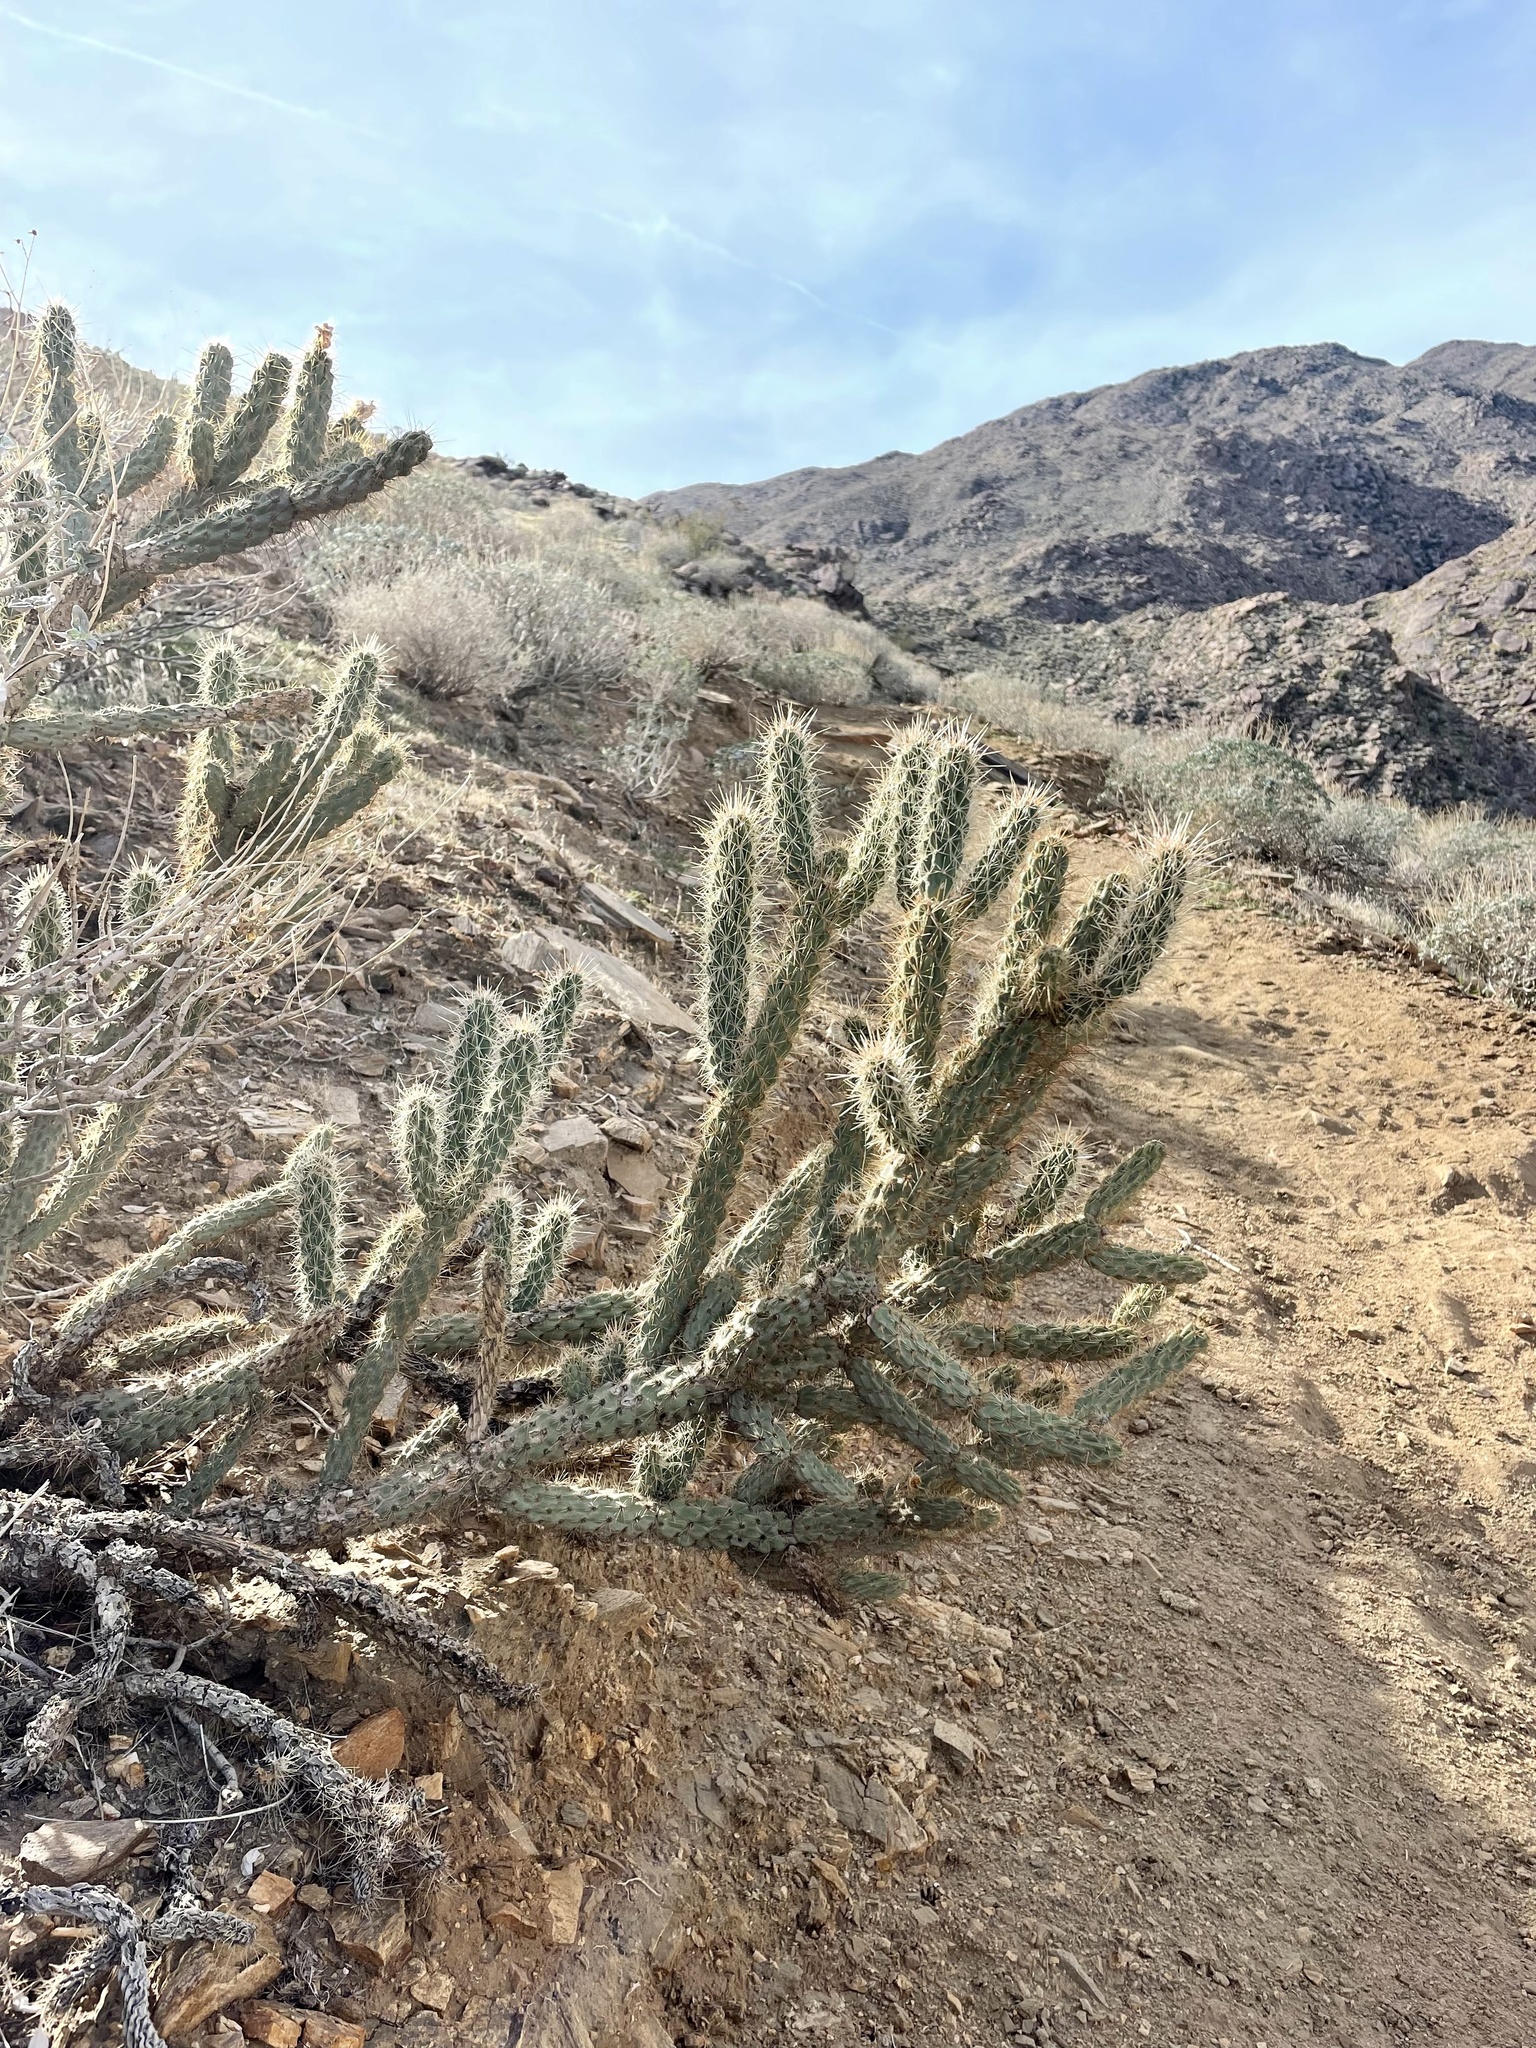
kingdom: Plantae
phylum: Tracheophyta
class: Magnoliopsida
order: Caryophyllales
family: Cactaceae
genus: Cylindropuntia
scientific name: Cylindropuntia ganderi
